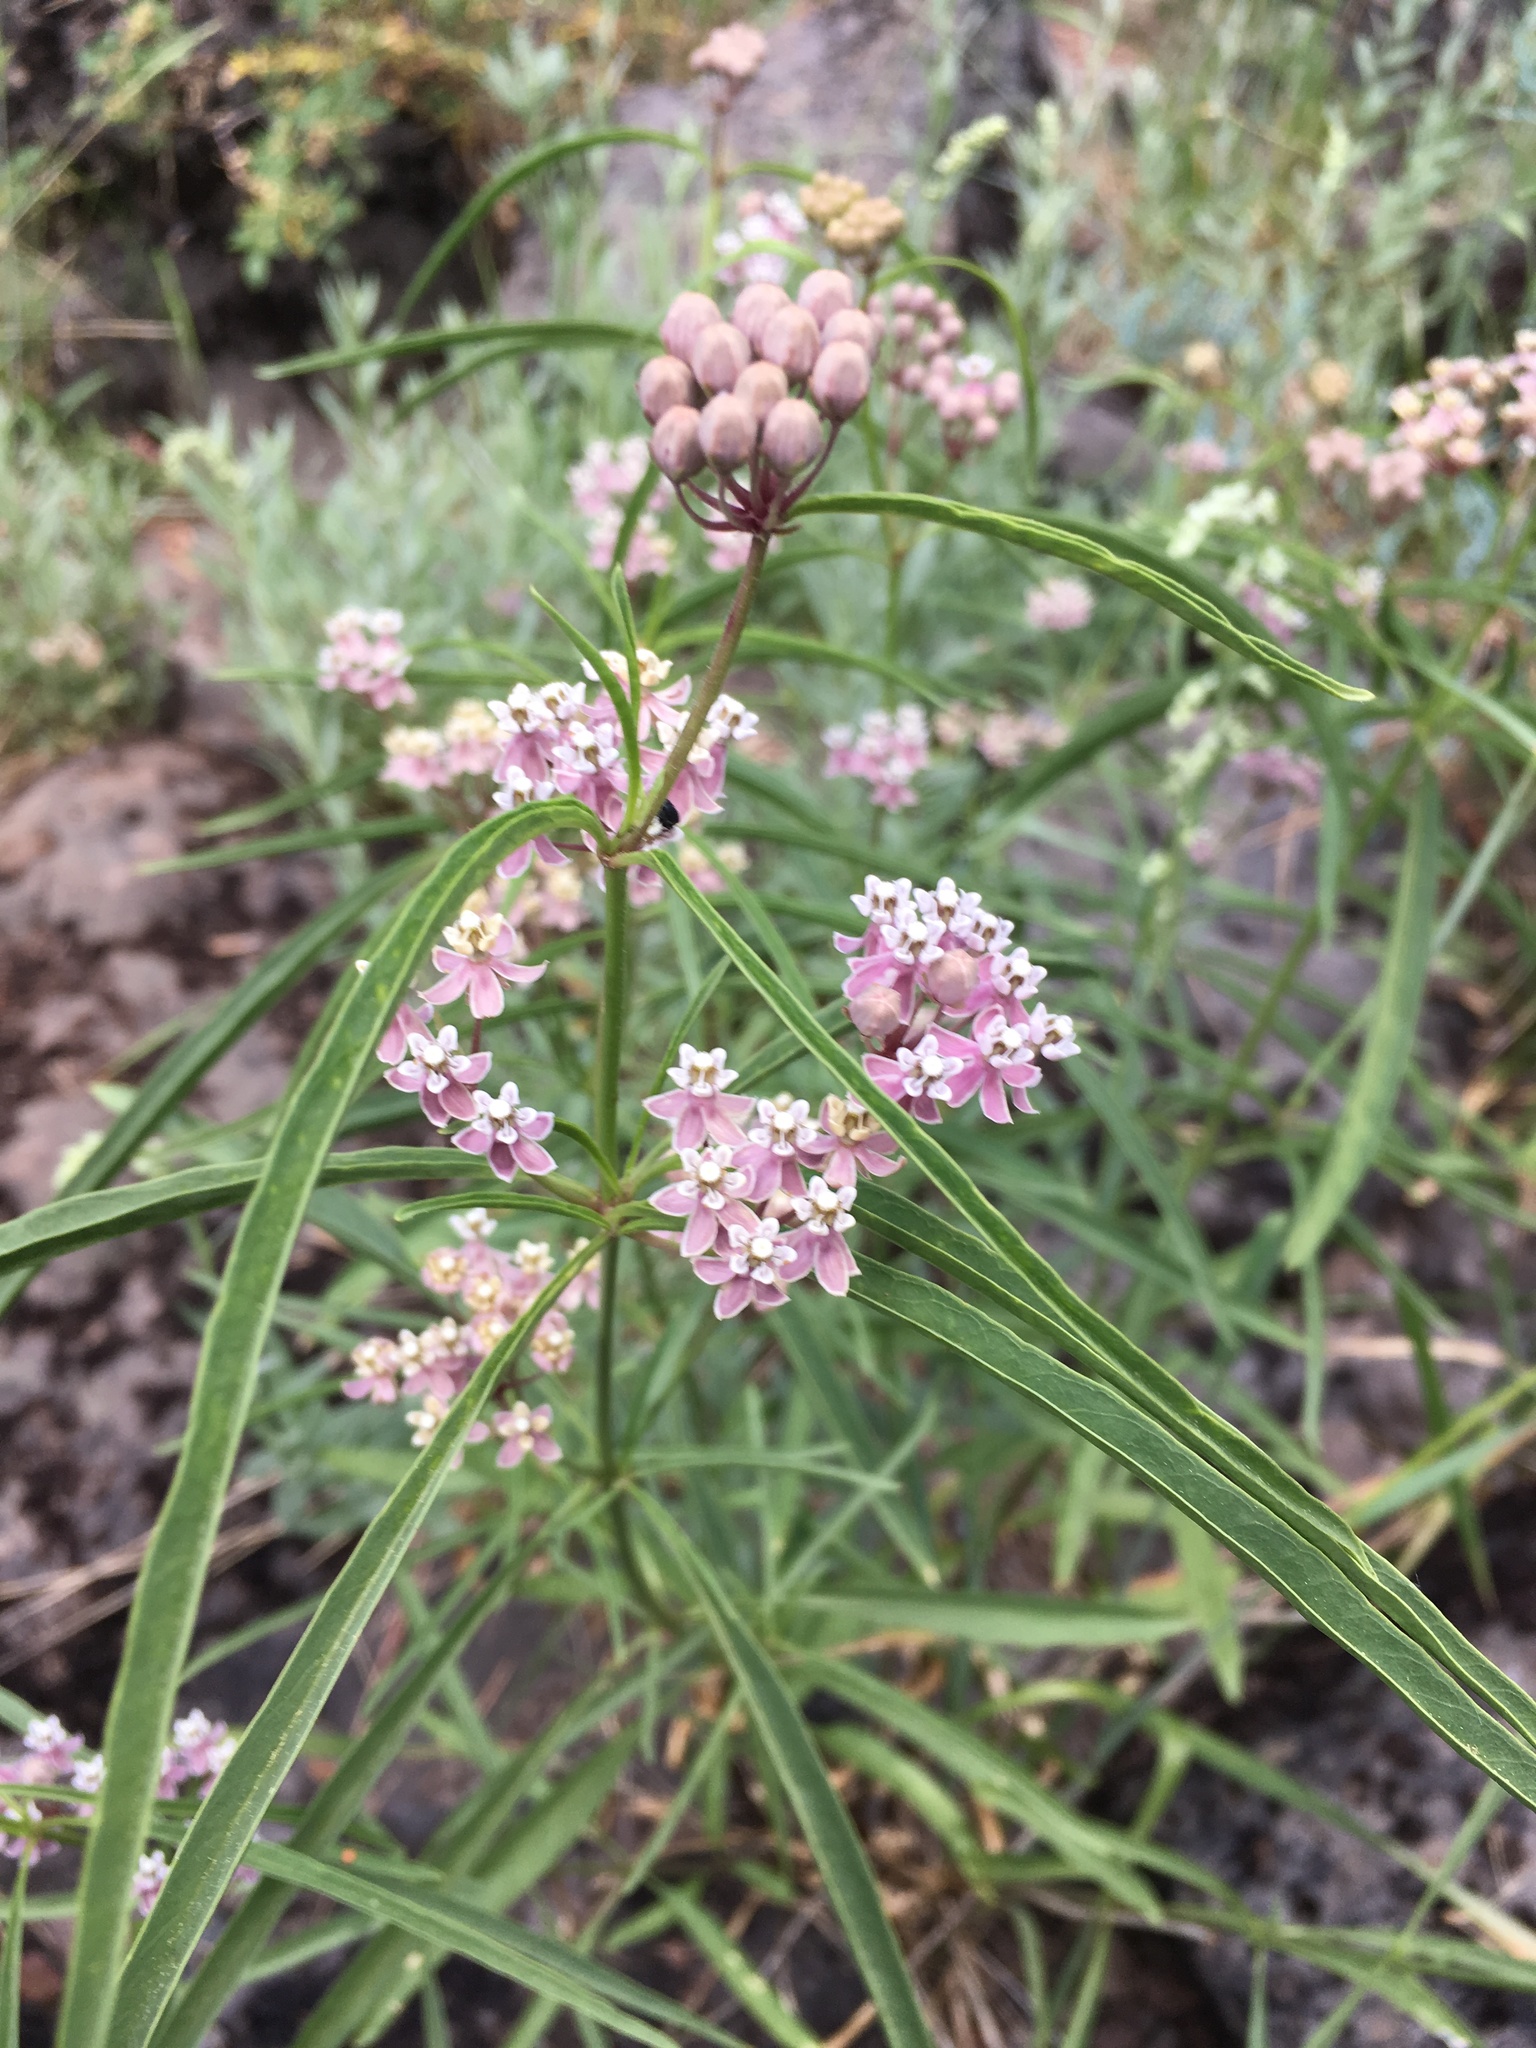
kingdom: Plantae
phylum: Tracheophyta
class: Magnoliopsida
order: Gentianales
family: Apocynaceae
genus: Asclepias
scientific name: Asclepias fascicularis
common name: Mexican milkweed
